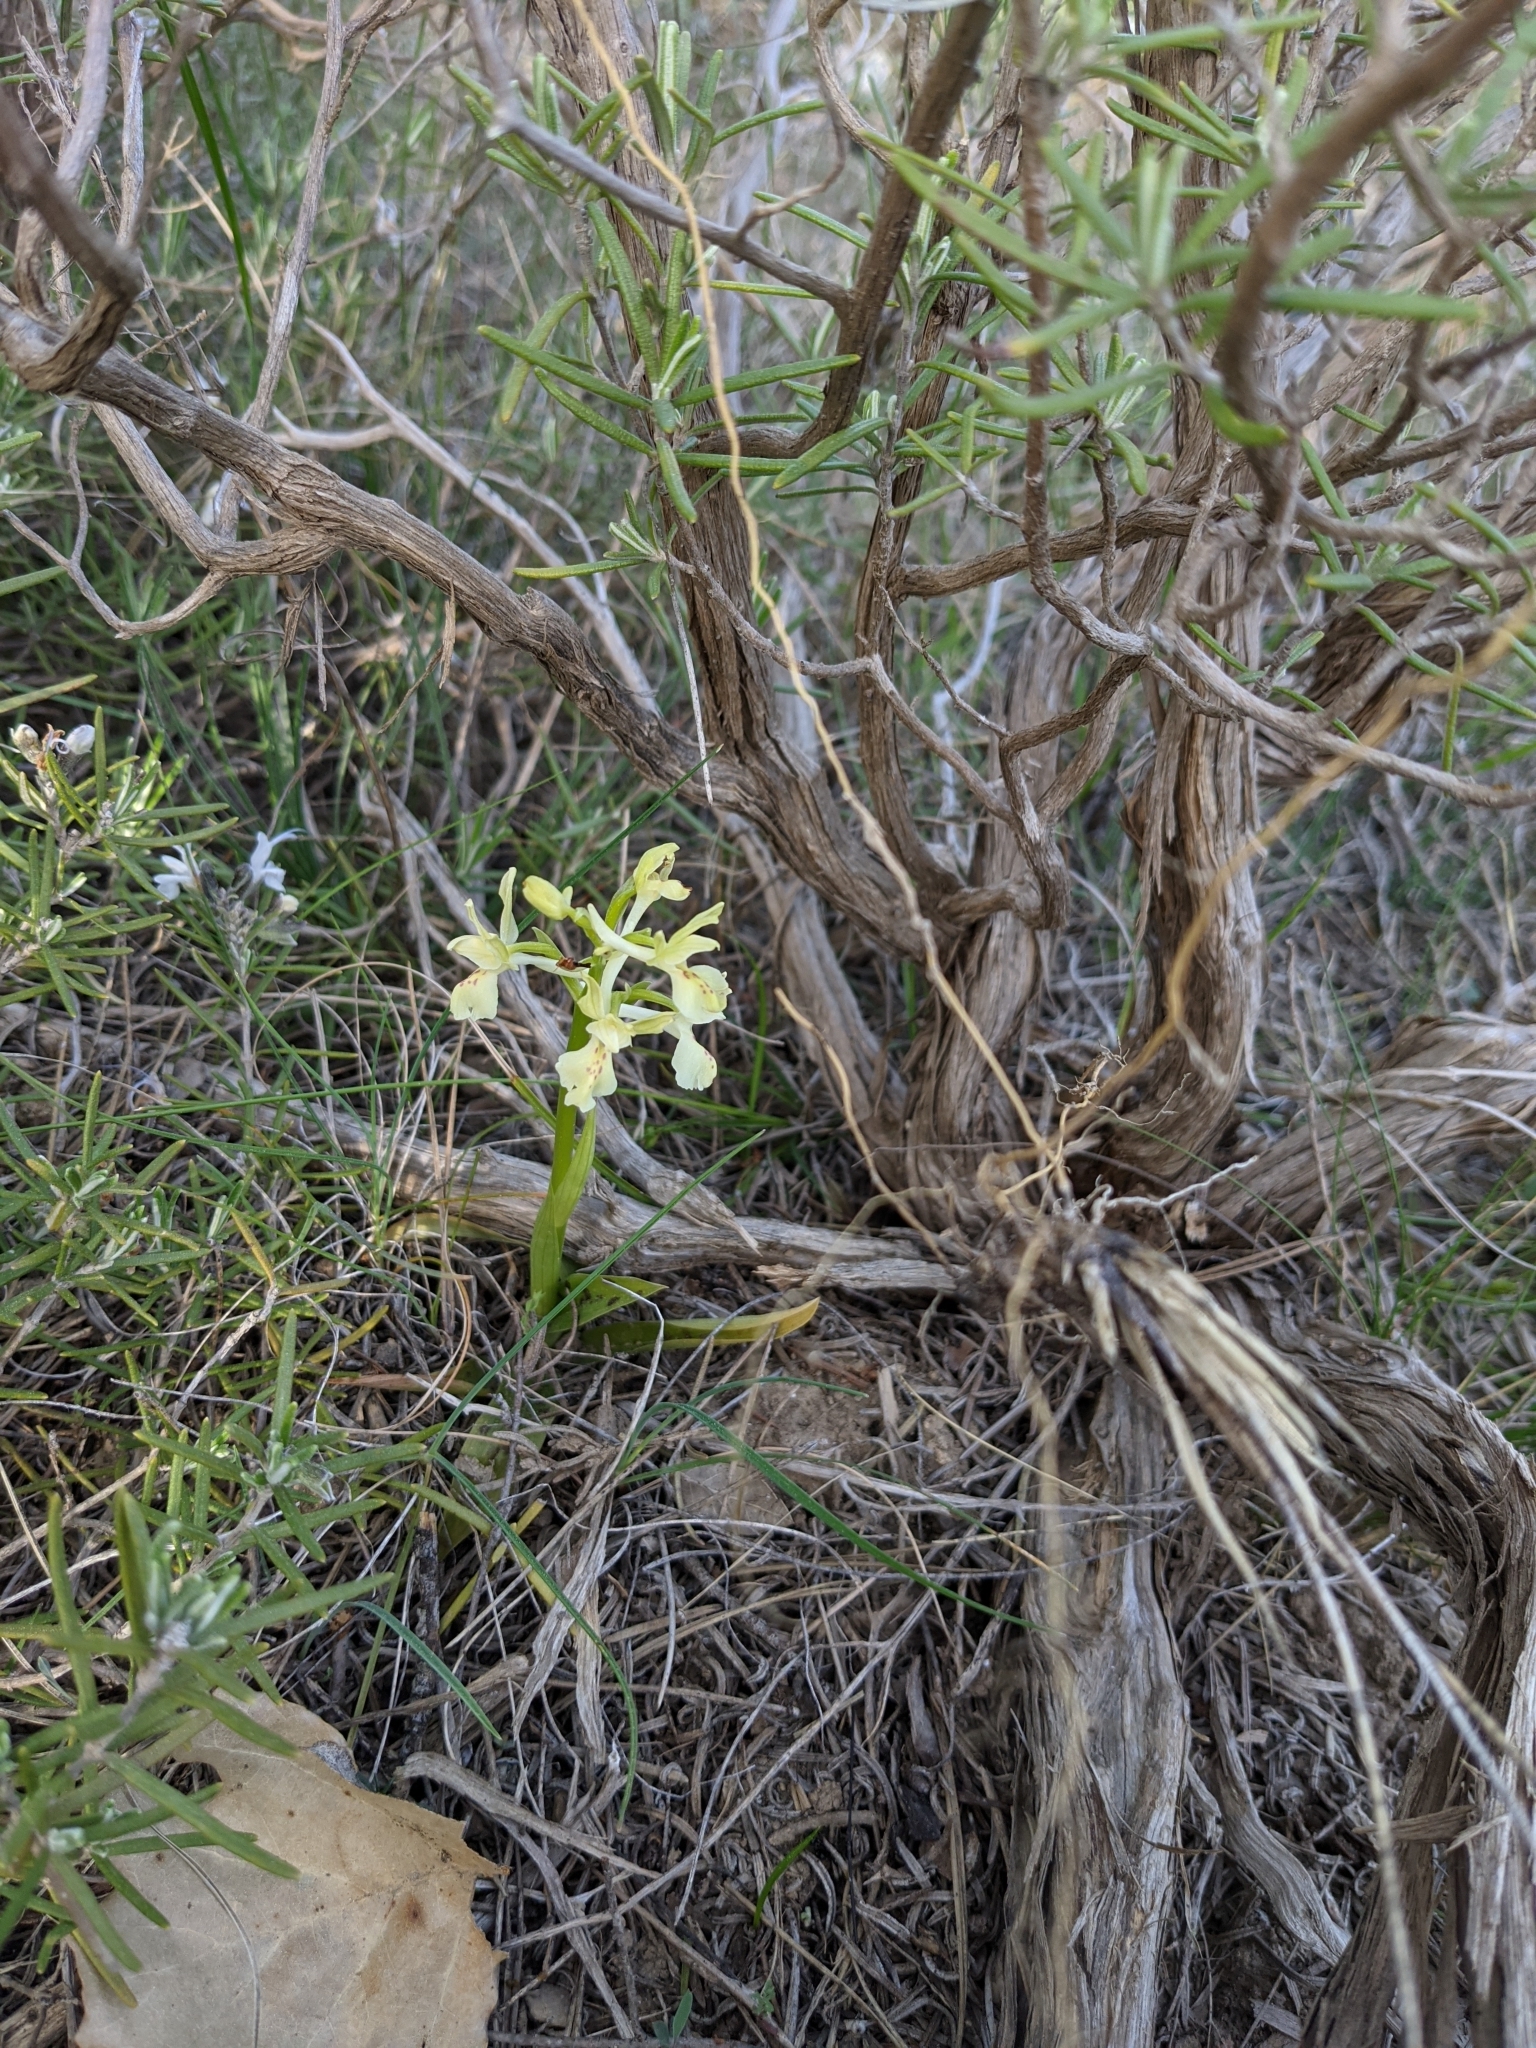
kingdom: Plantae
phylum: Tracheophyta
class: Liliopsida
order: Asparagales
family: Orchidaceae
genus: Orchis
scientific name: Orchis provincialis
